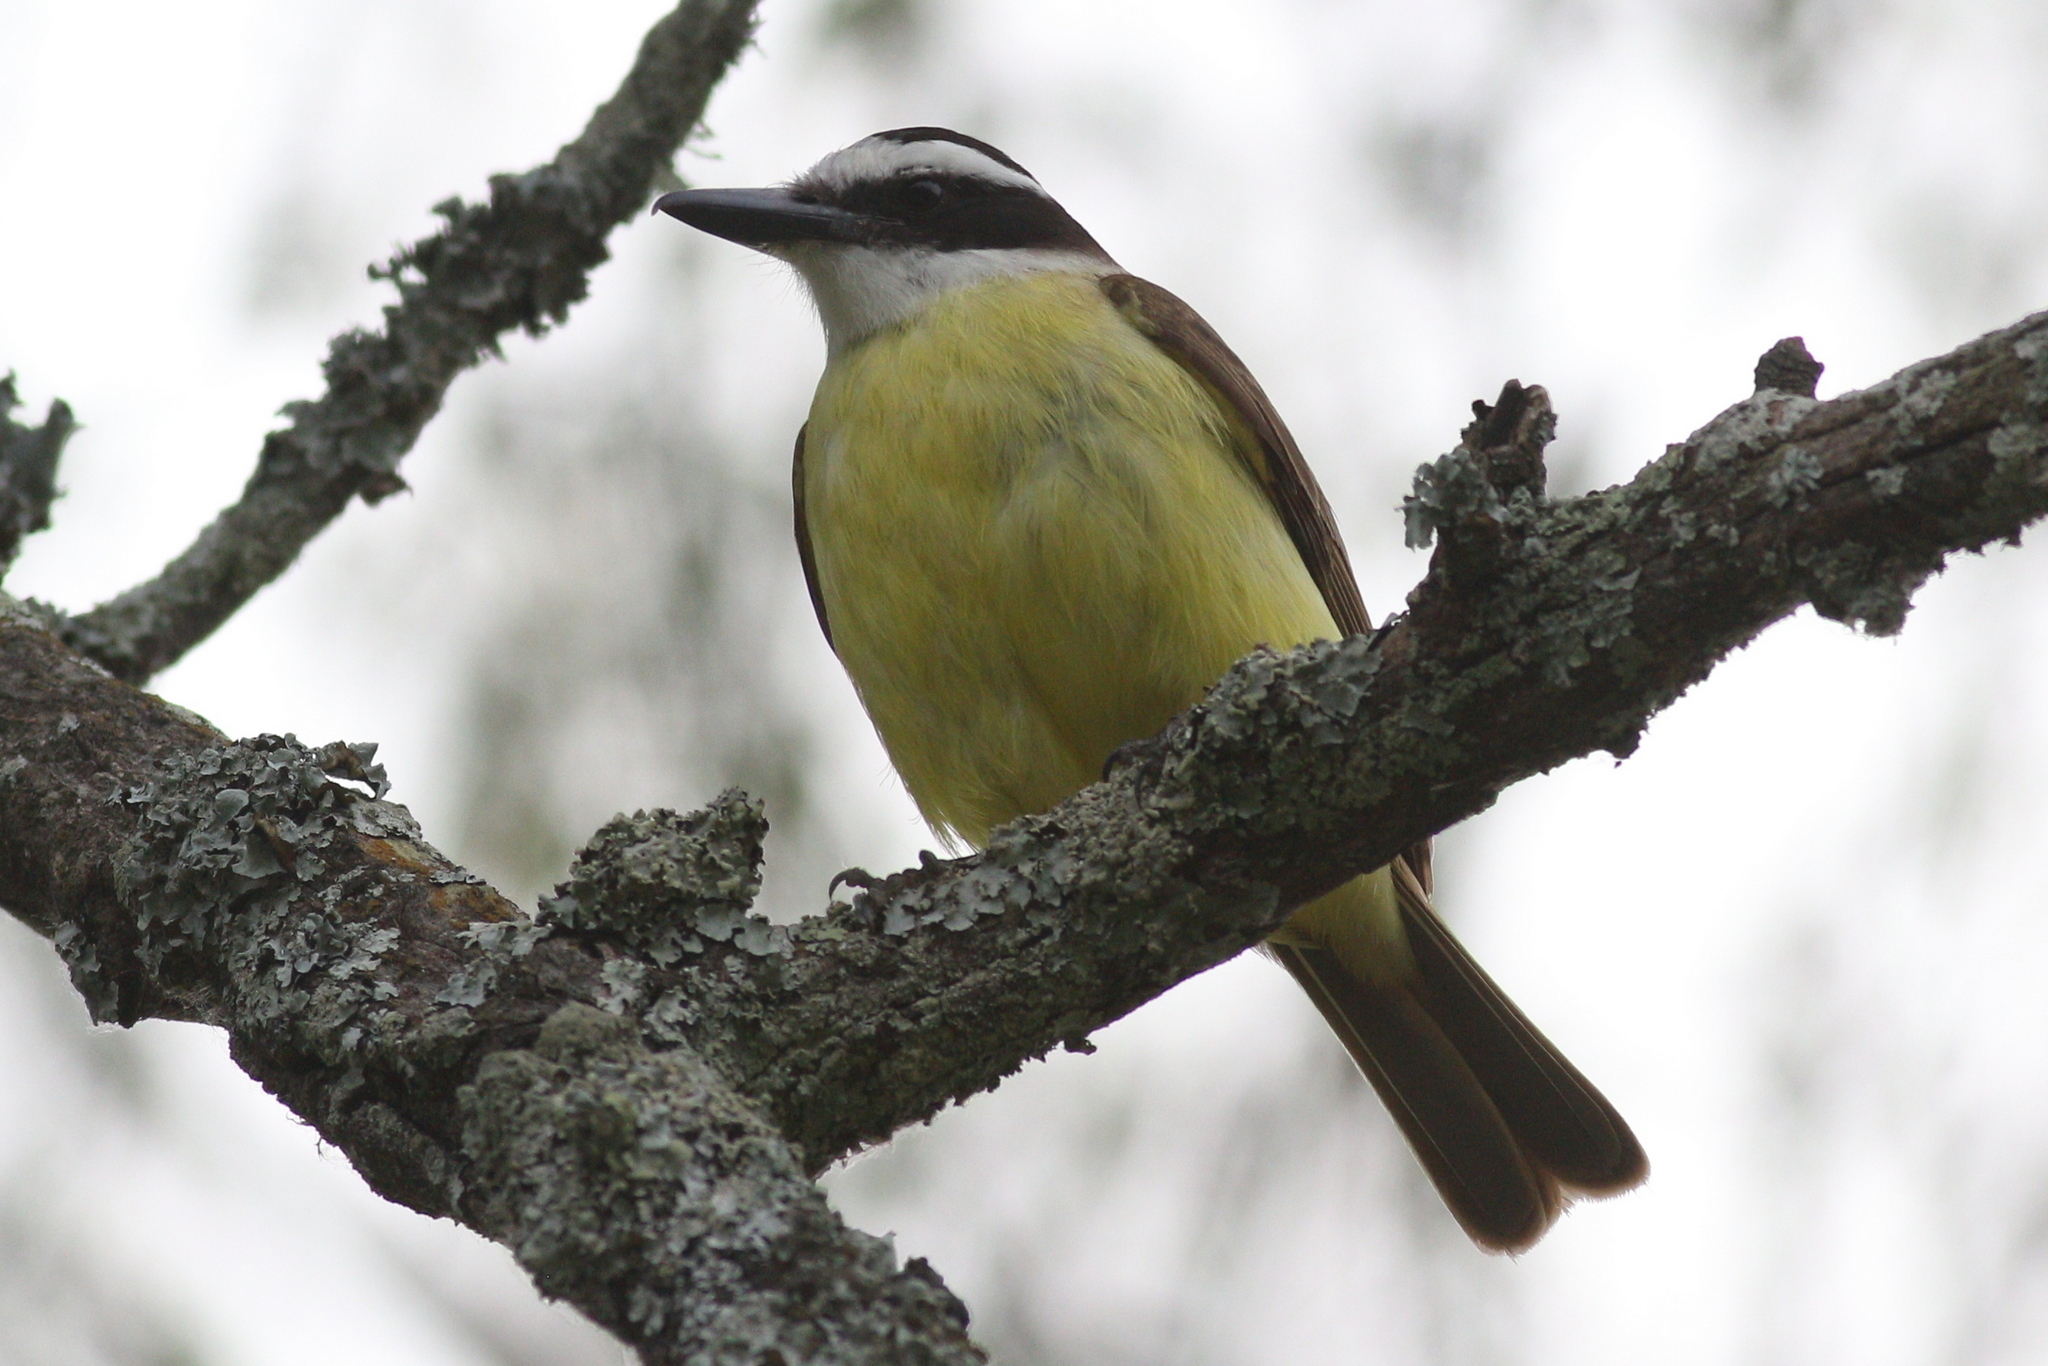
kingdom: Animalia
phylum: Chordata
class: Aves
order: Passeriformes
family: Tyrannidae
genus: Pitangus
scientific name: Pitangus sulphuratus
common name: Great kiskadee
